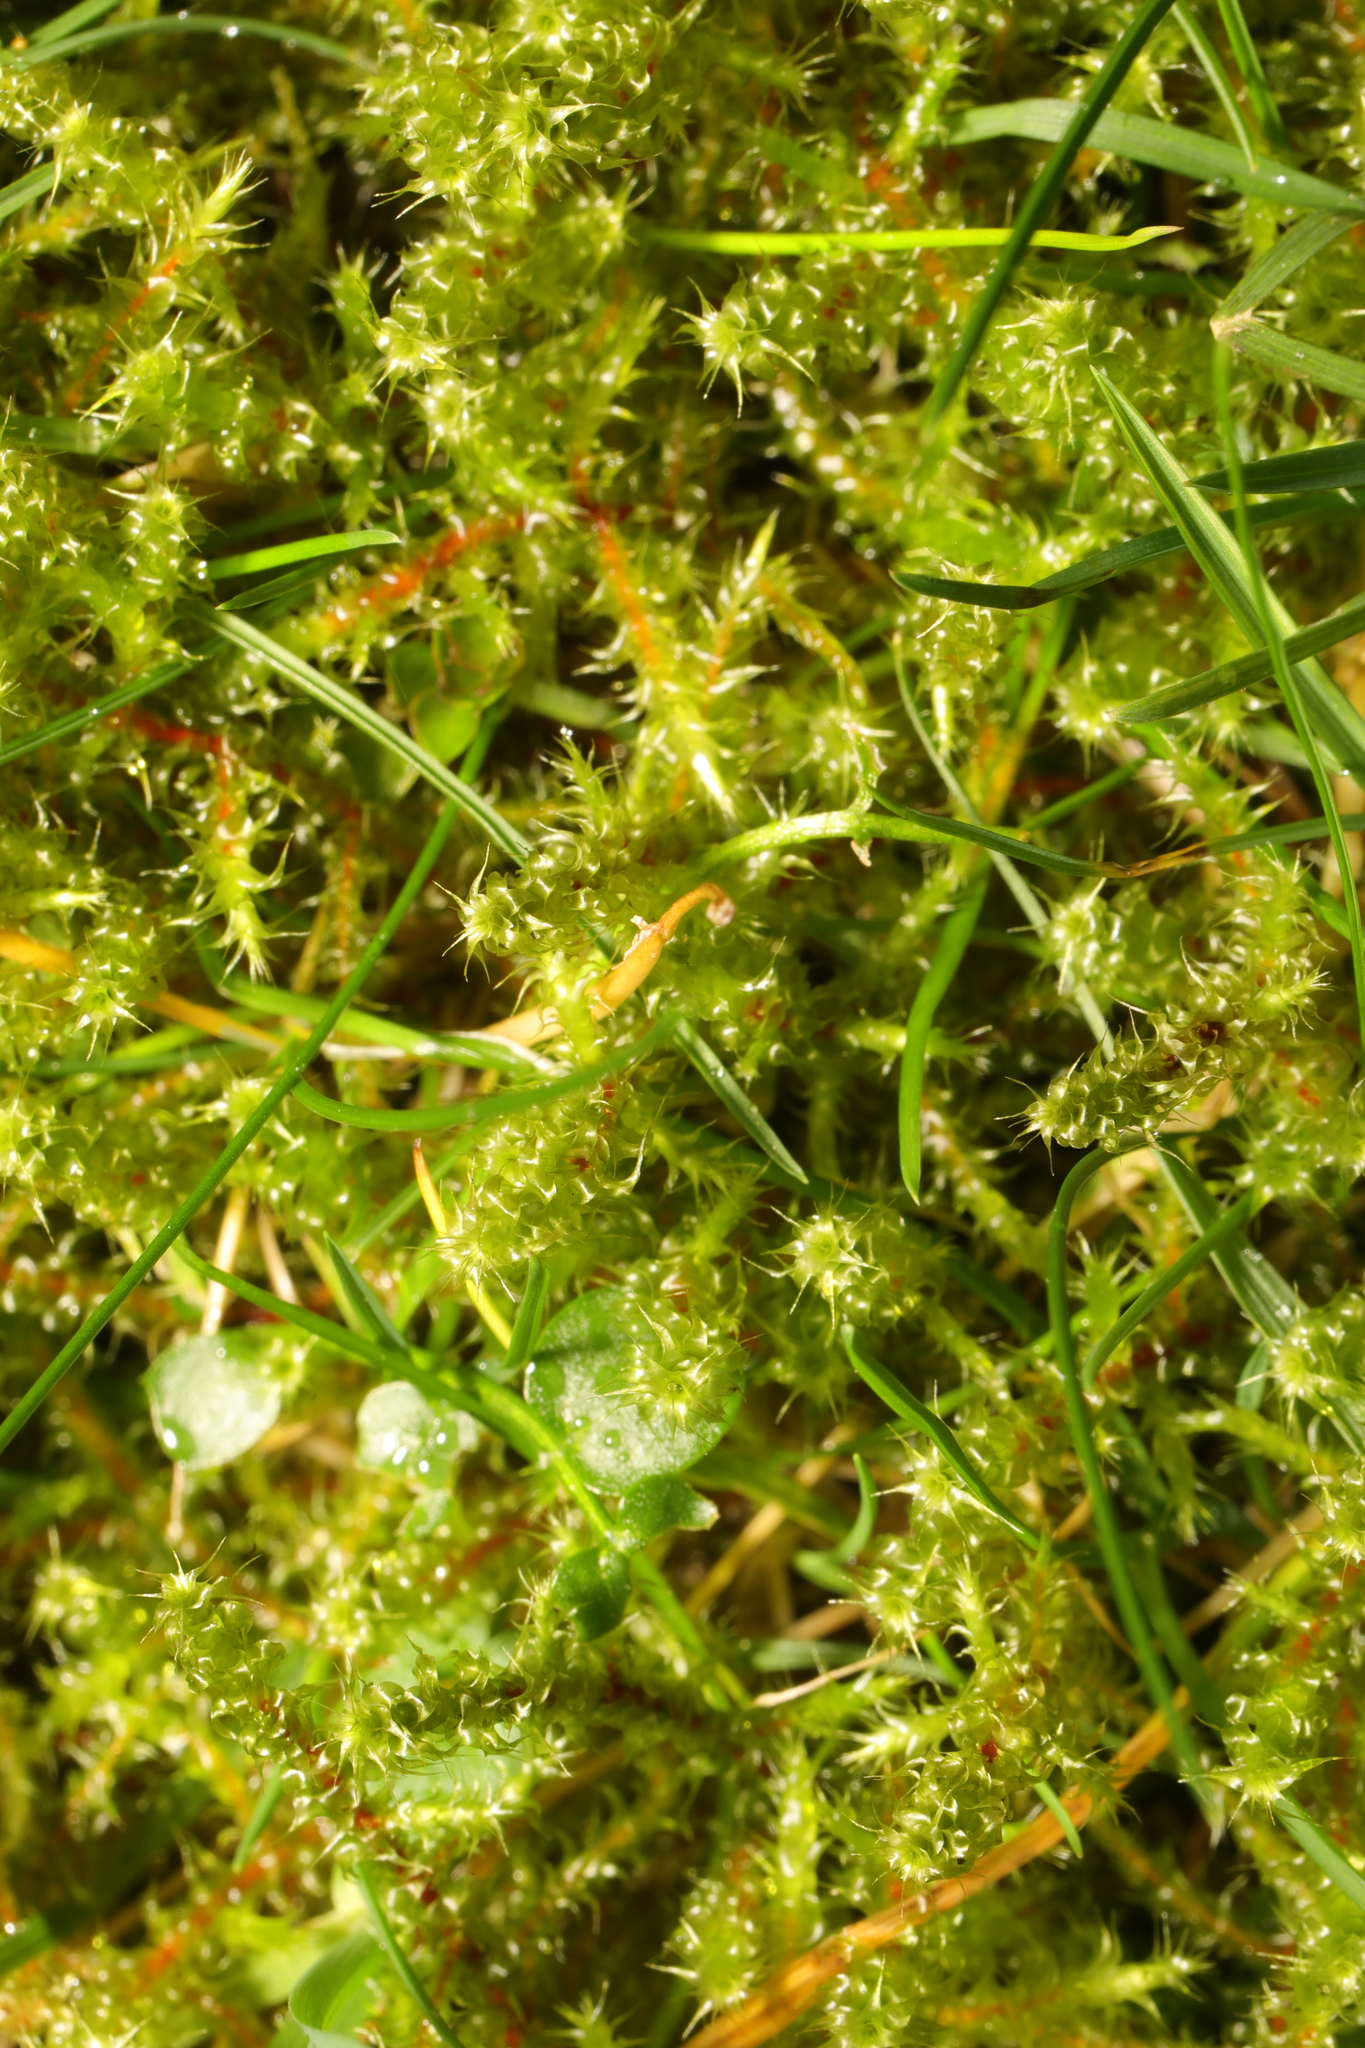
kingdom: Plantae
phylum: Bryophyta
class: Bryopsida
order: Hypnales
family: Hylocomiaceae
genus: Rhytidiadelphus
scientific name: Rhytidiadelphus squarrosus
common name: Springy turf-moss
